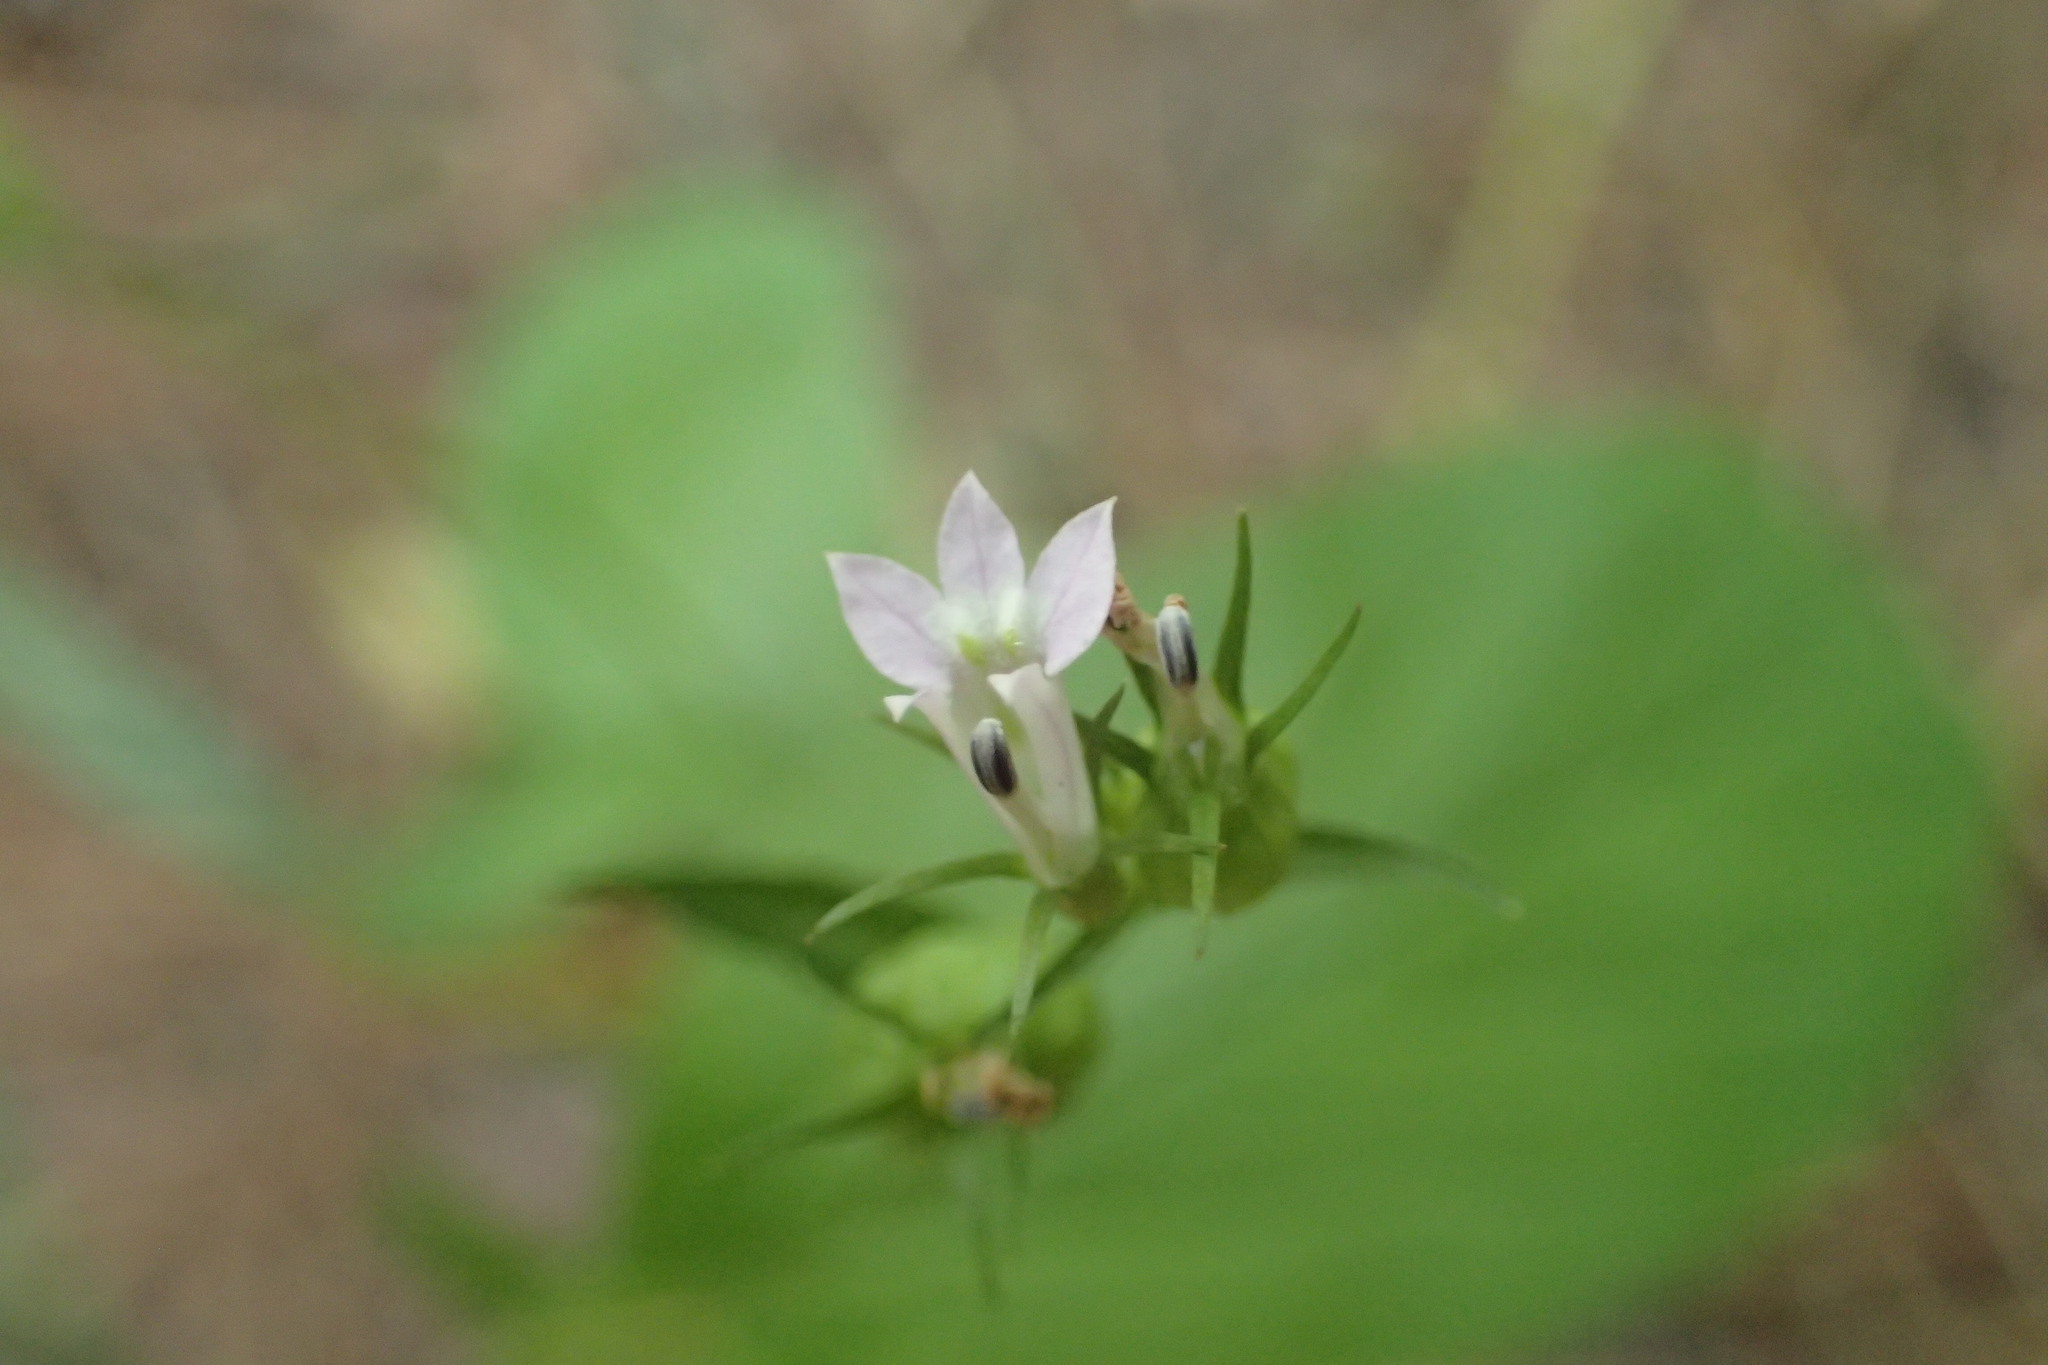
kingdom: Plantae
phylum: Tracheophyta
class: Magnoliopsida
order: Asterales
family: Campanulaceae
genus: Lobelia
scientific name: Lobelia inflata
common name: Indian tobacco
